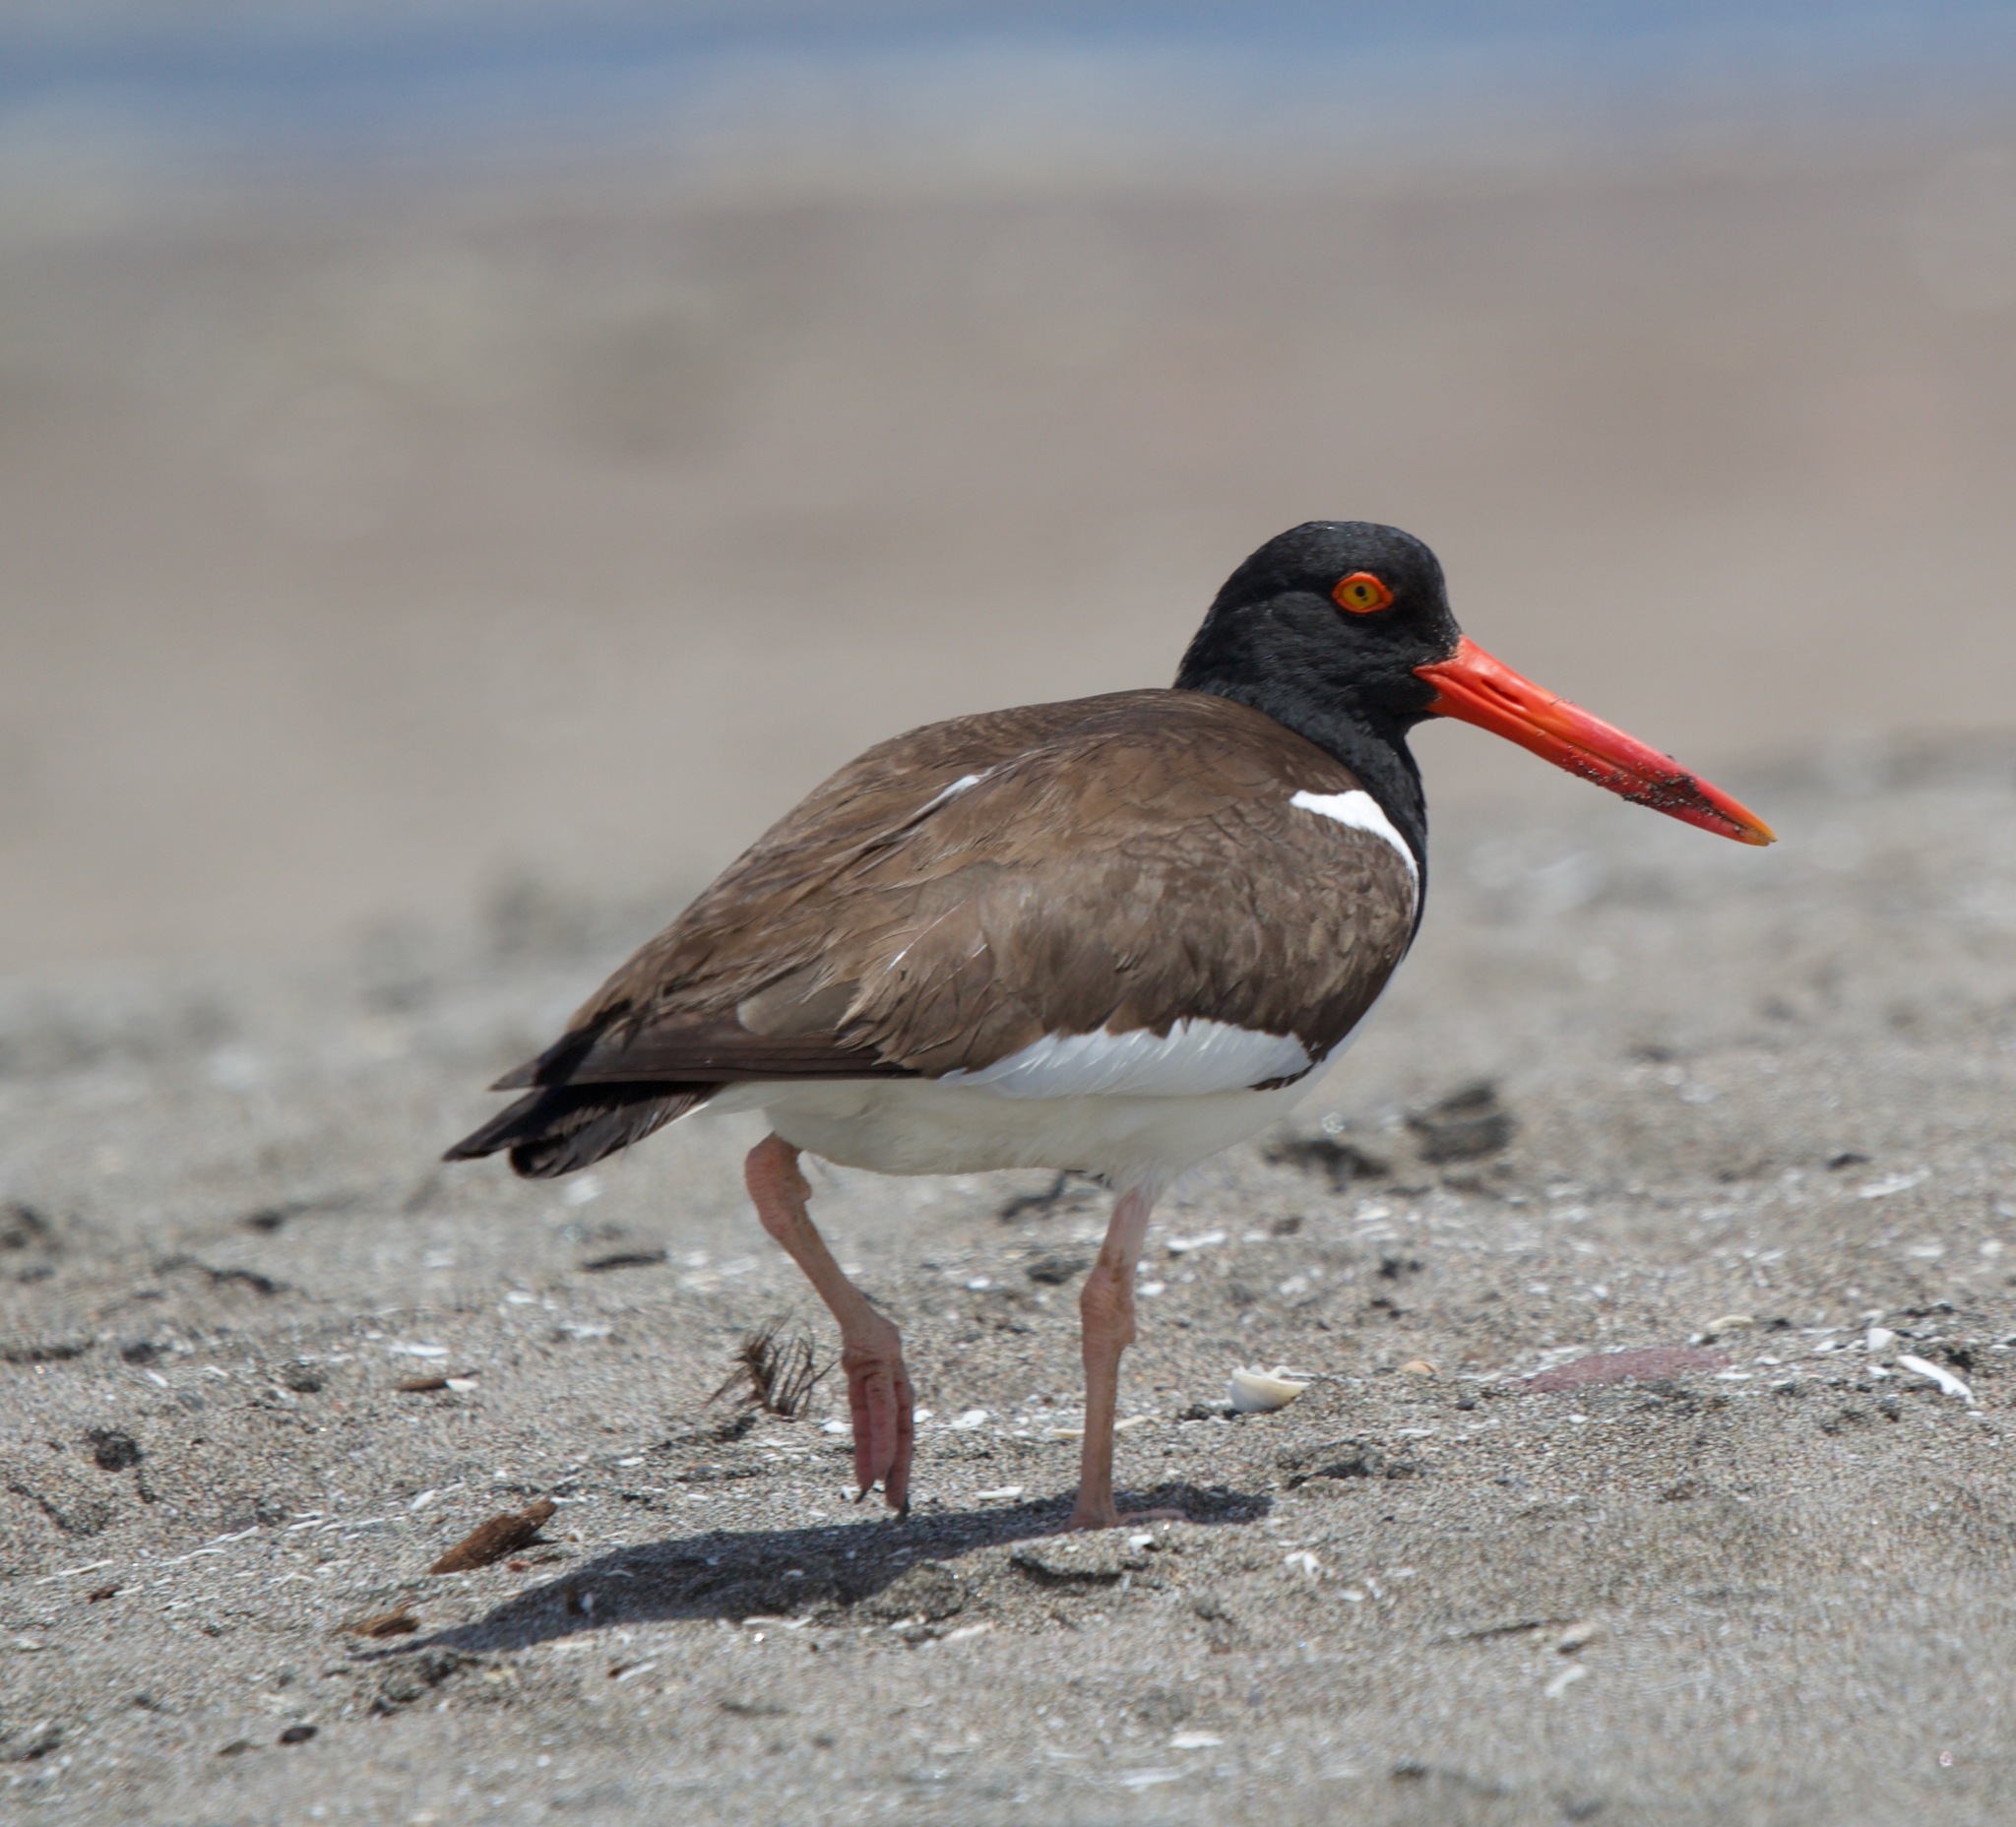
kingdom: Animalia
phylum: Chordata
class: Aves
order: Charadriiformes
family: Haematopodidae
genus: Haematopus
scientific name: Haematopus palliatus
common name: American oystercatcher
